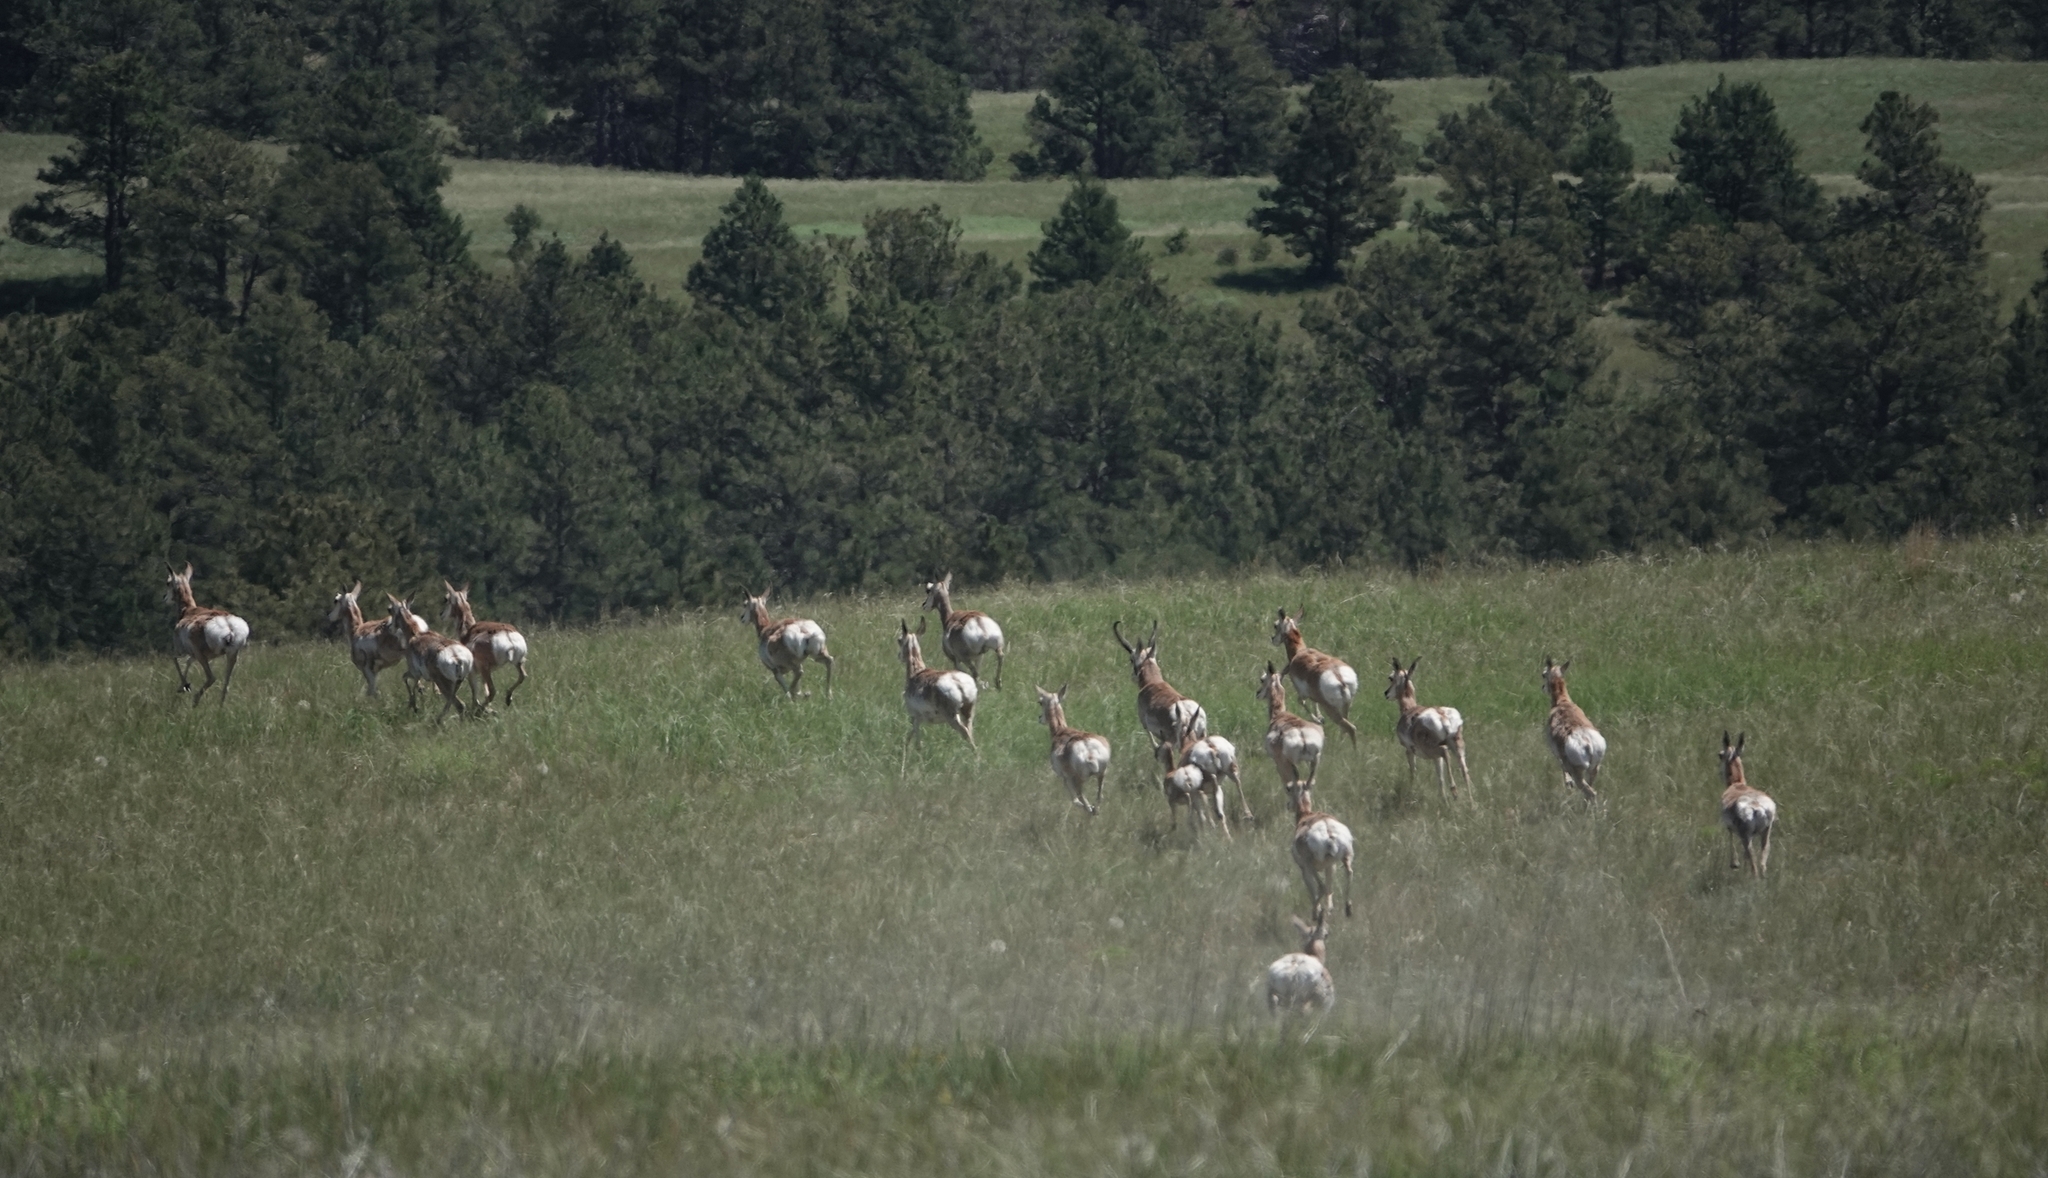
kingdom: Animalia
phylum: Chordata
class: Mammalia
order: Artiodactyla
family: Antilocapridae
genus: Antilocapra
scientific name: Antilocapra americana
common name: Pronghorn
